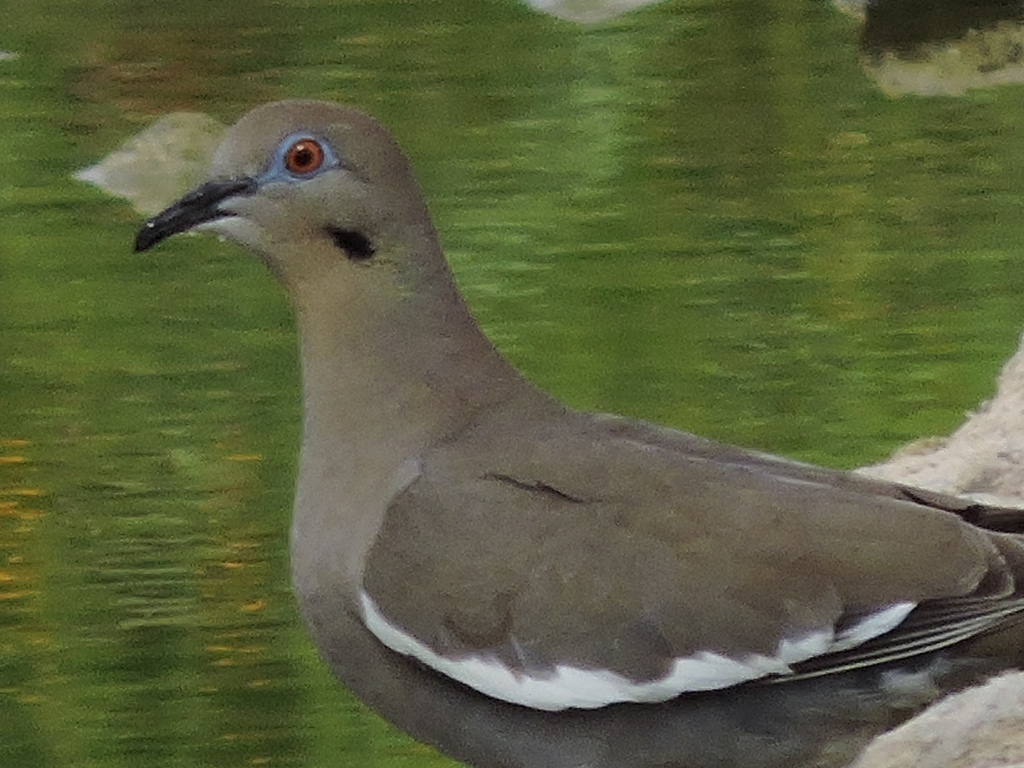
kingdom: Animalia
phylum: Chordata
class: Aves
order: Columbiformes
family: Columbidae
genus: Zenaida
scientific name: Zenaida asiatica
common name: White-winged dove
